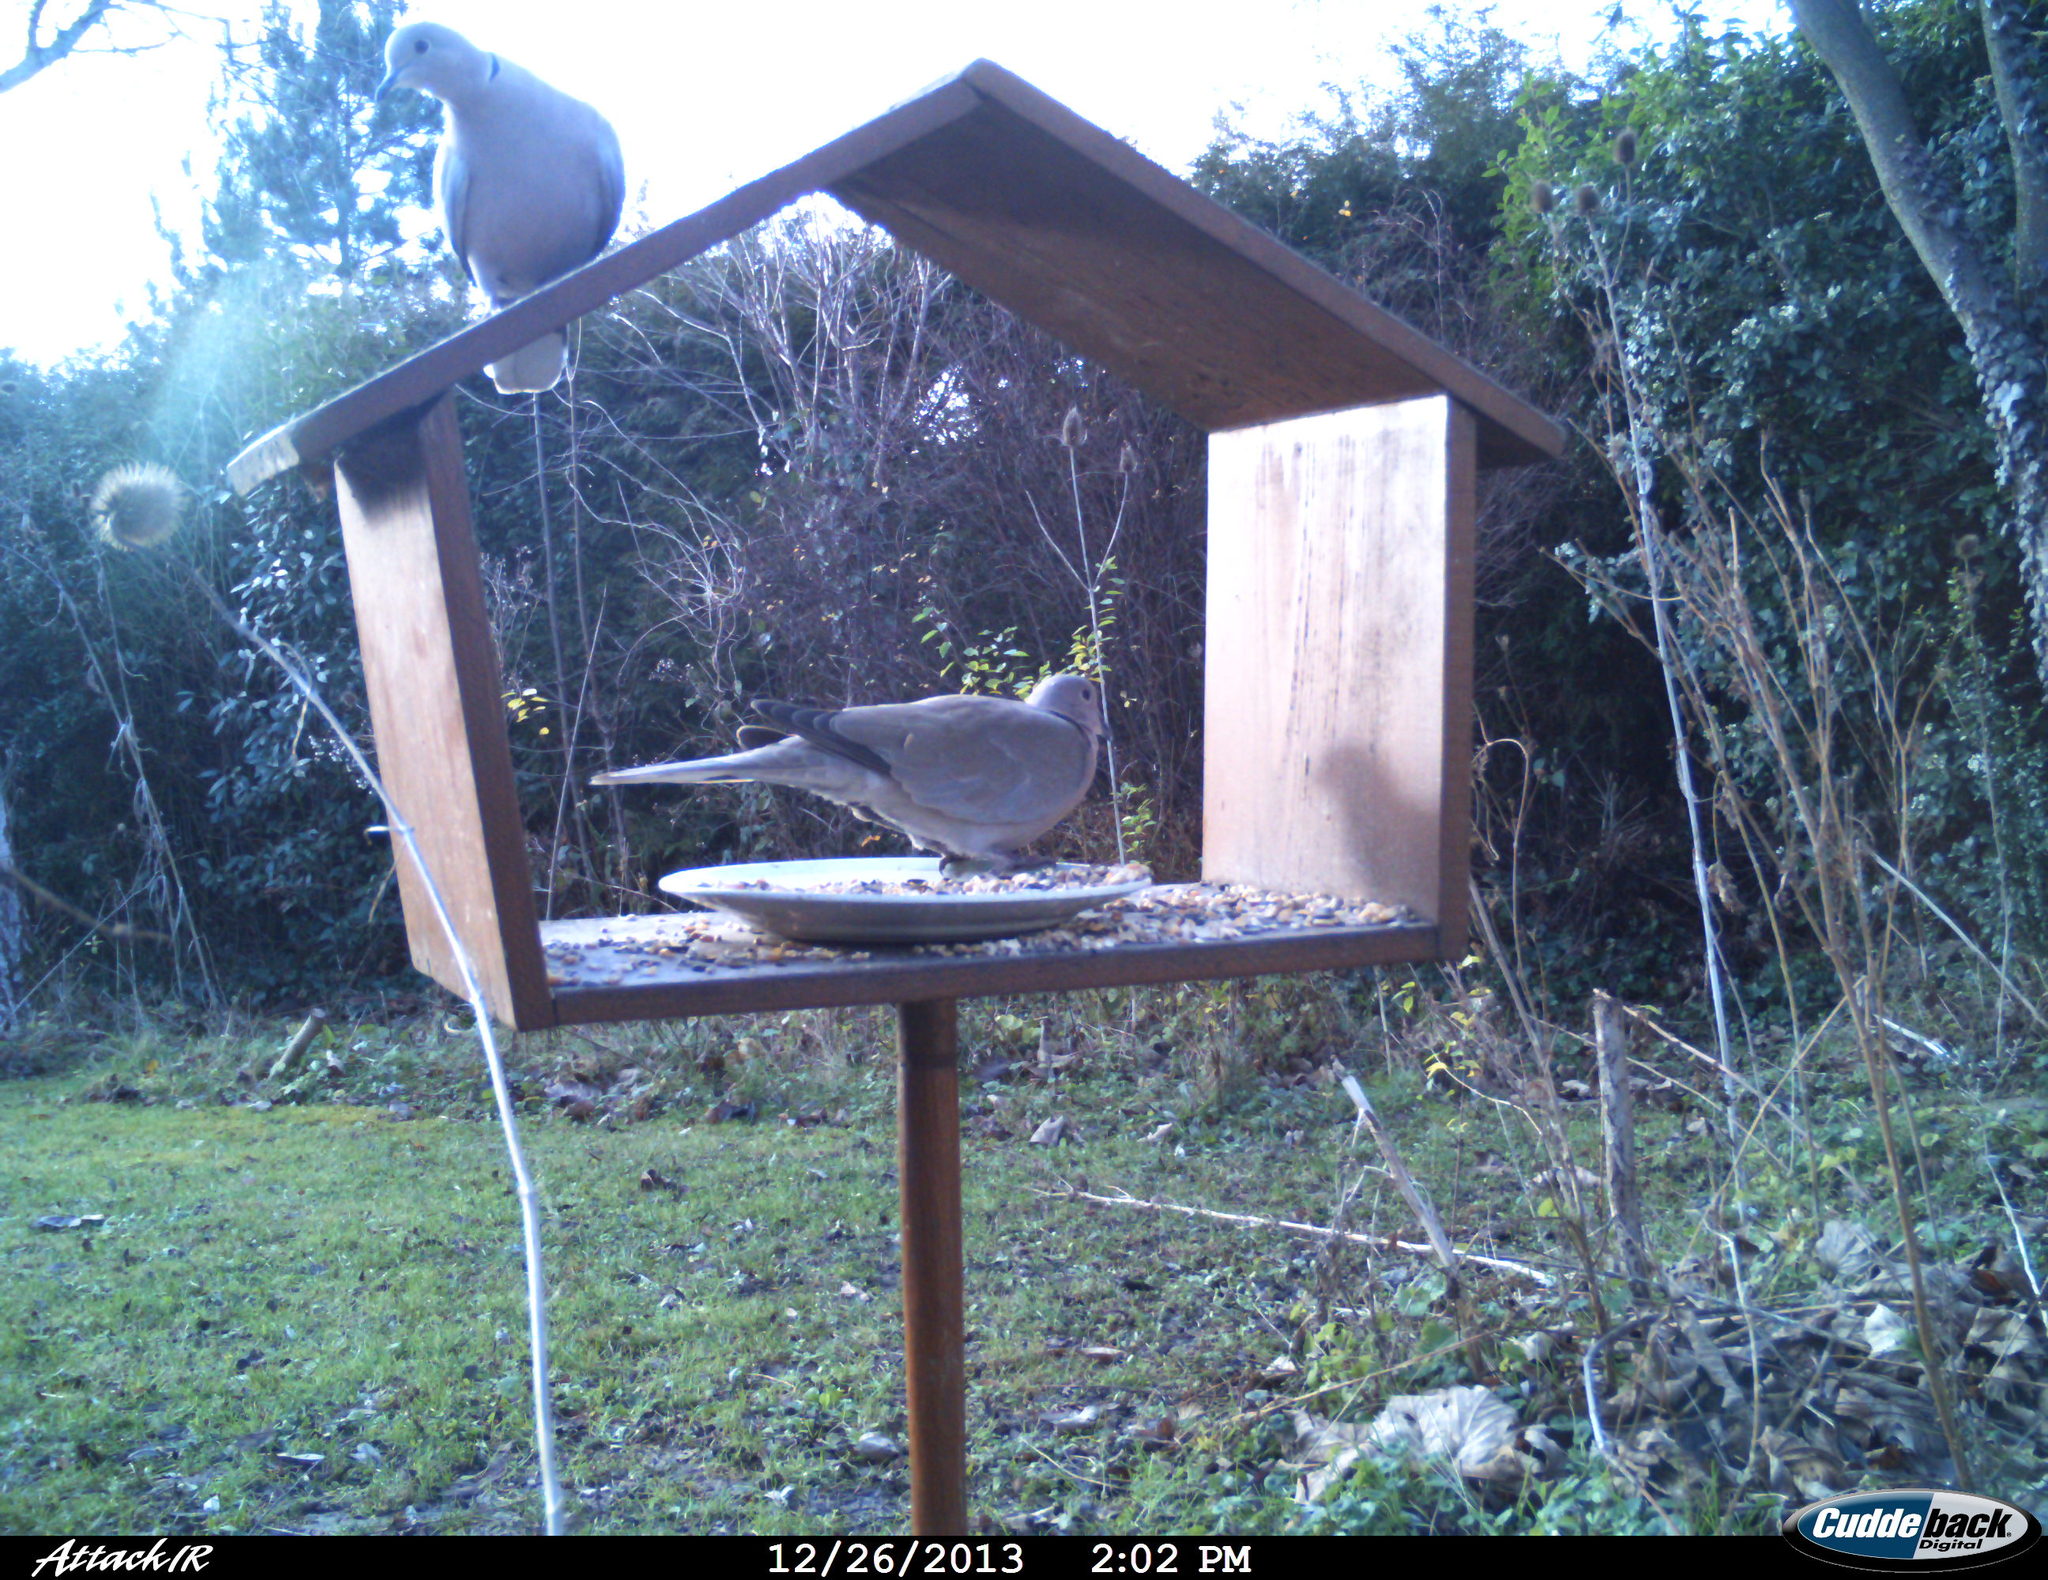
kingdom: Animalia
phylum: Chordata
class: Aves
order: Columbiformes
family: Columbidae
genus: Streptopelia
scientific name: Streptopelia decaocto
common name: Eurasian collared dove
